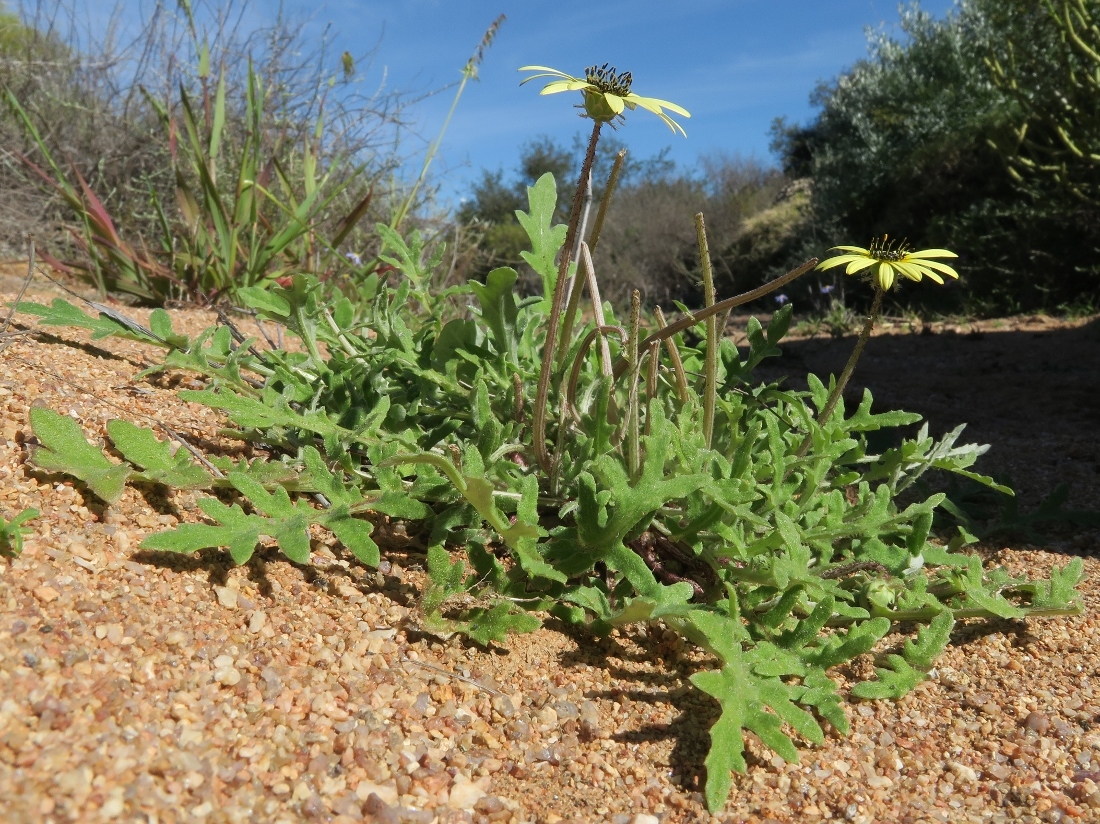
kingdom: Plantae
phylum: Tracheophyta
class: Magnoliopsida
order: Asterales
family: Asteraceae
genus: Arctotheca
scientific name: Arctotheca calendula
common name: Capeweed
